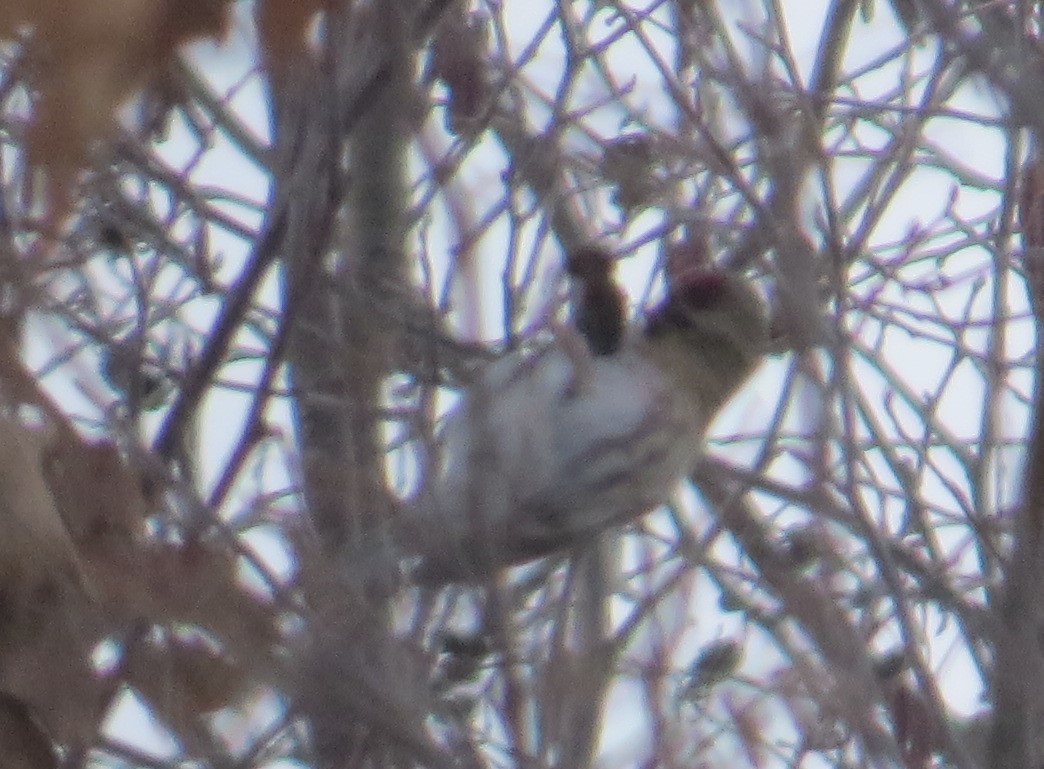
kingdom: Animalia
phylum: Chordata
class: Aves
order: Passeriformes
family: Fringillidae
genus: Acanthis
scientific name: Acanthis flammea
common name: Common redpoll
